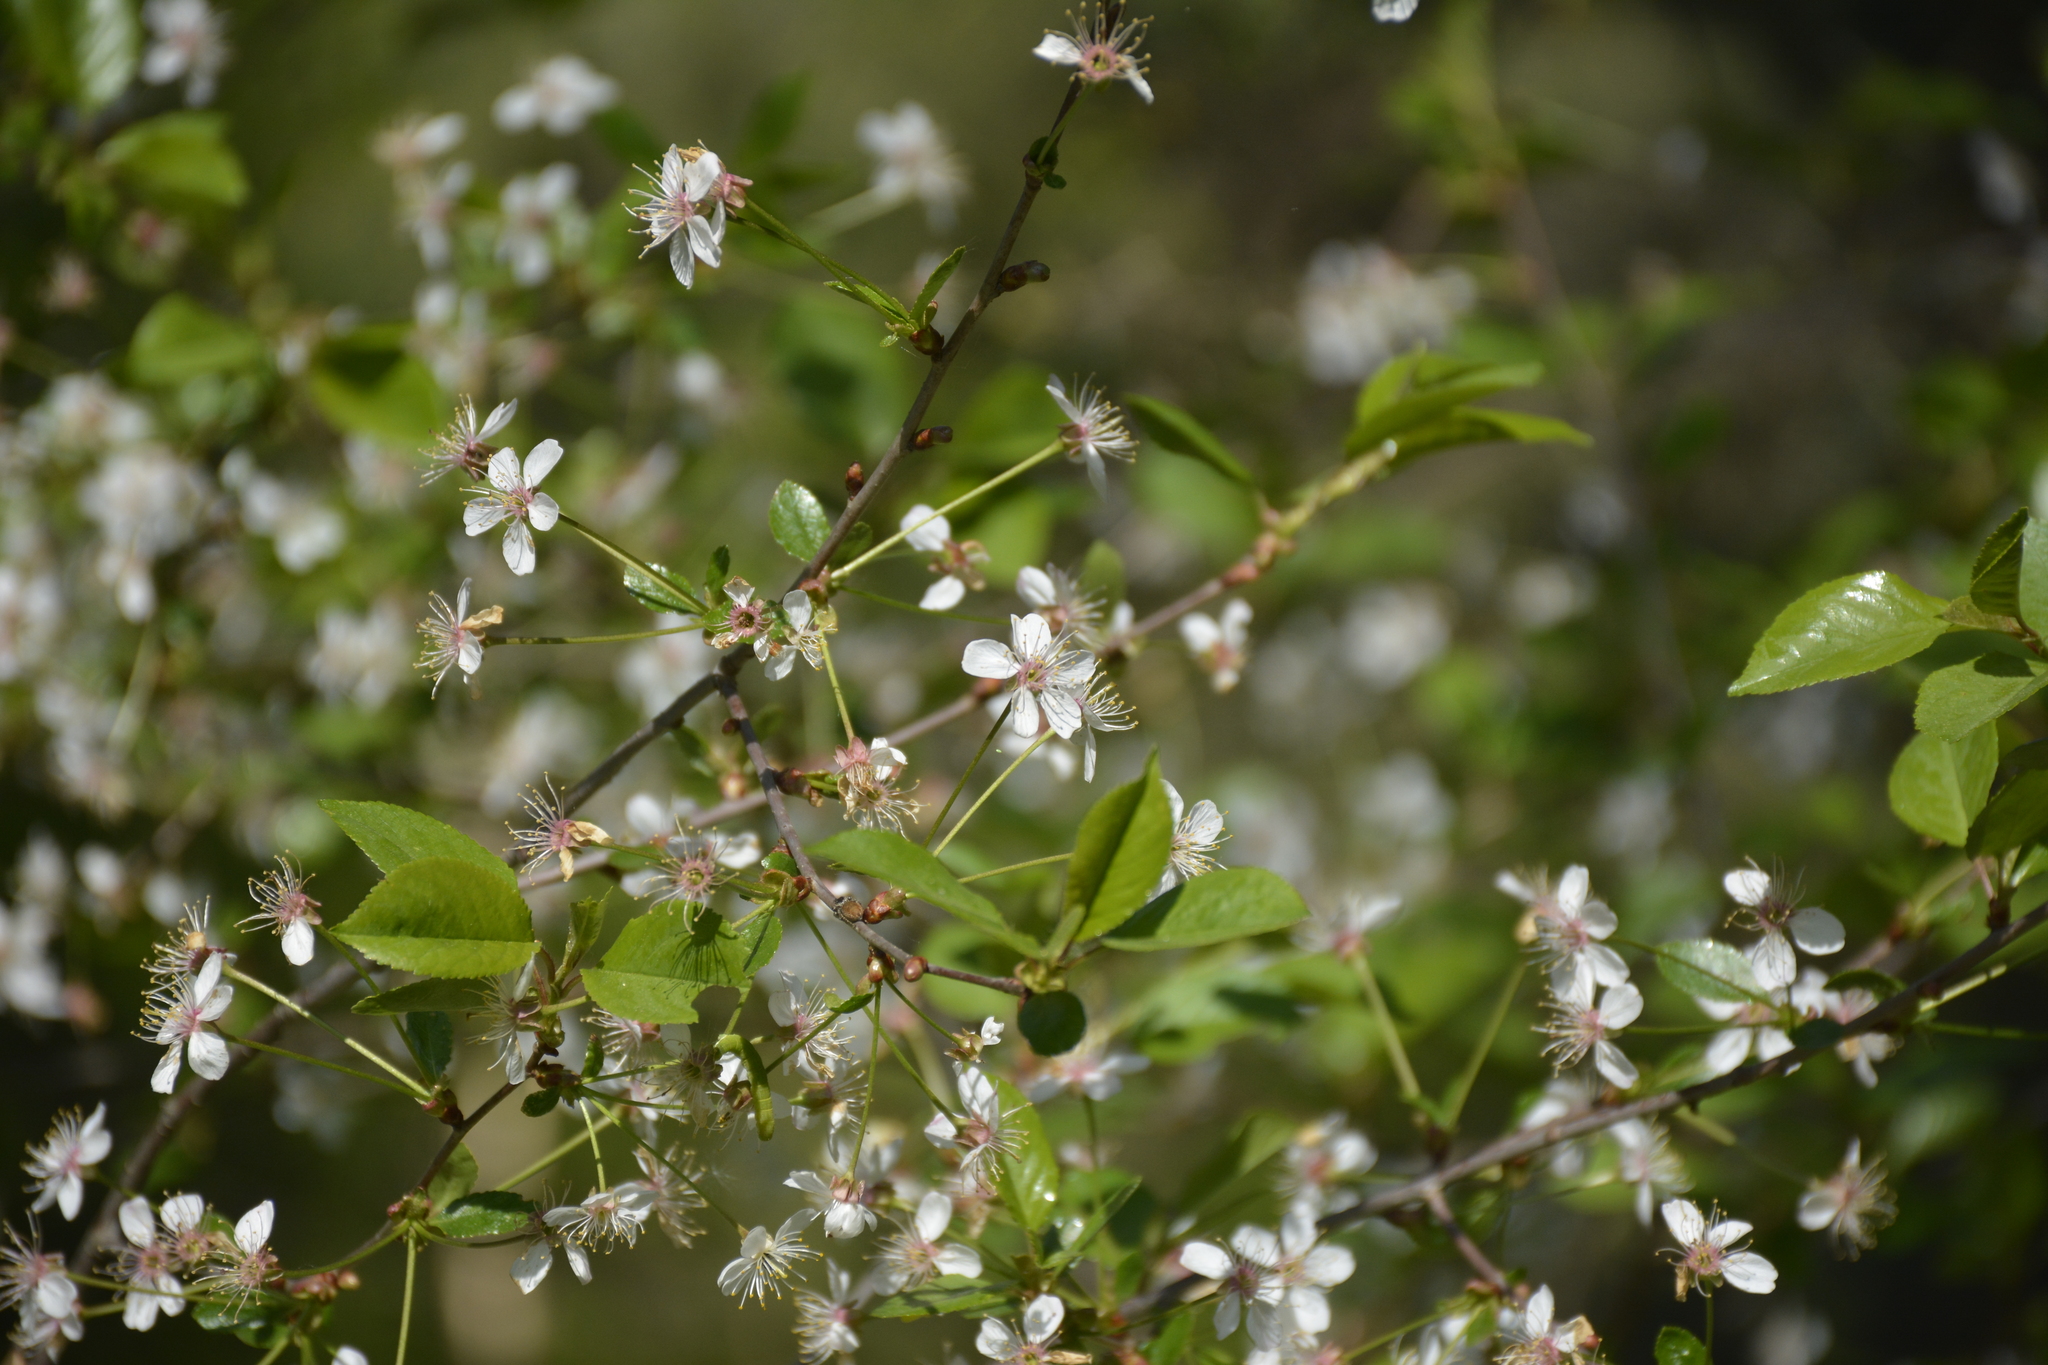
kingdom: Plantae
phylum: Tracheophyta
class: Magnoliopsida
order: Rosales
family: Rosaceae
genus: Prunus
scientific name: Prunus cerasus
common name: Morello cherry
